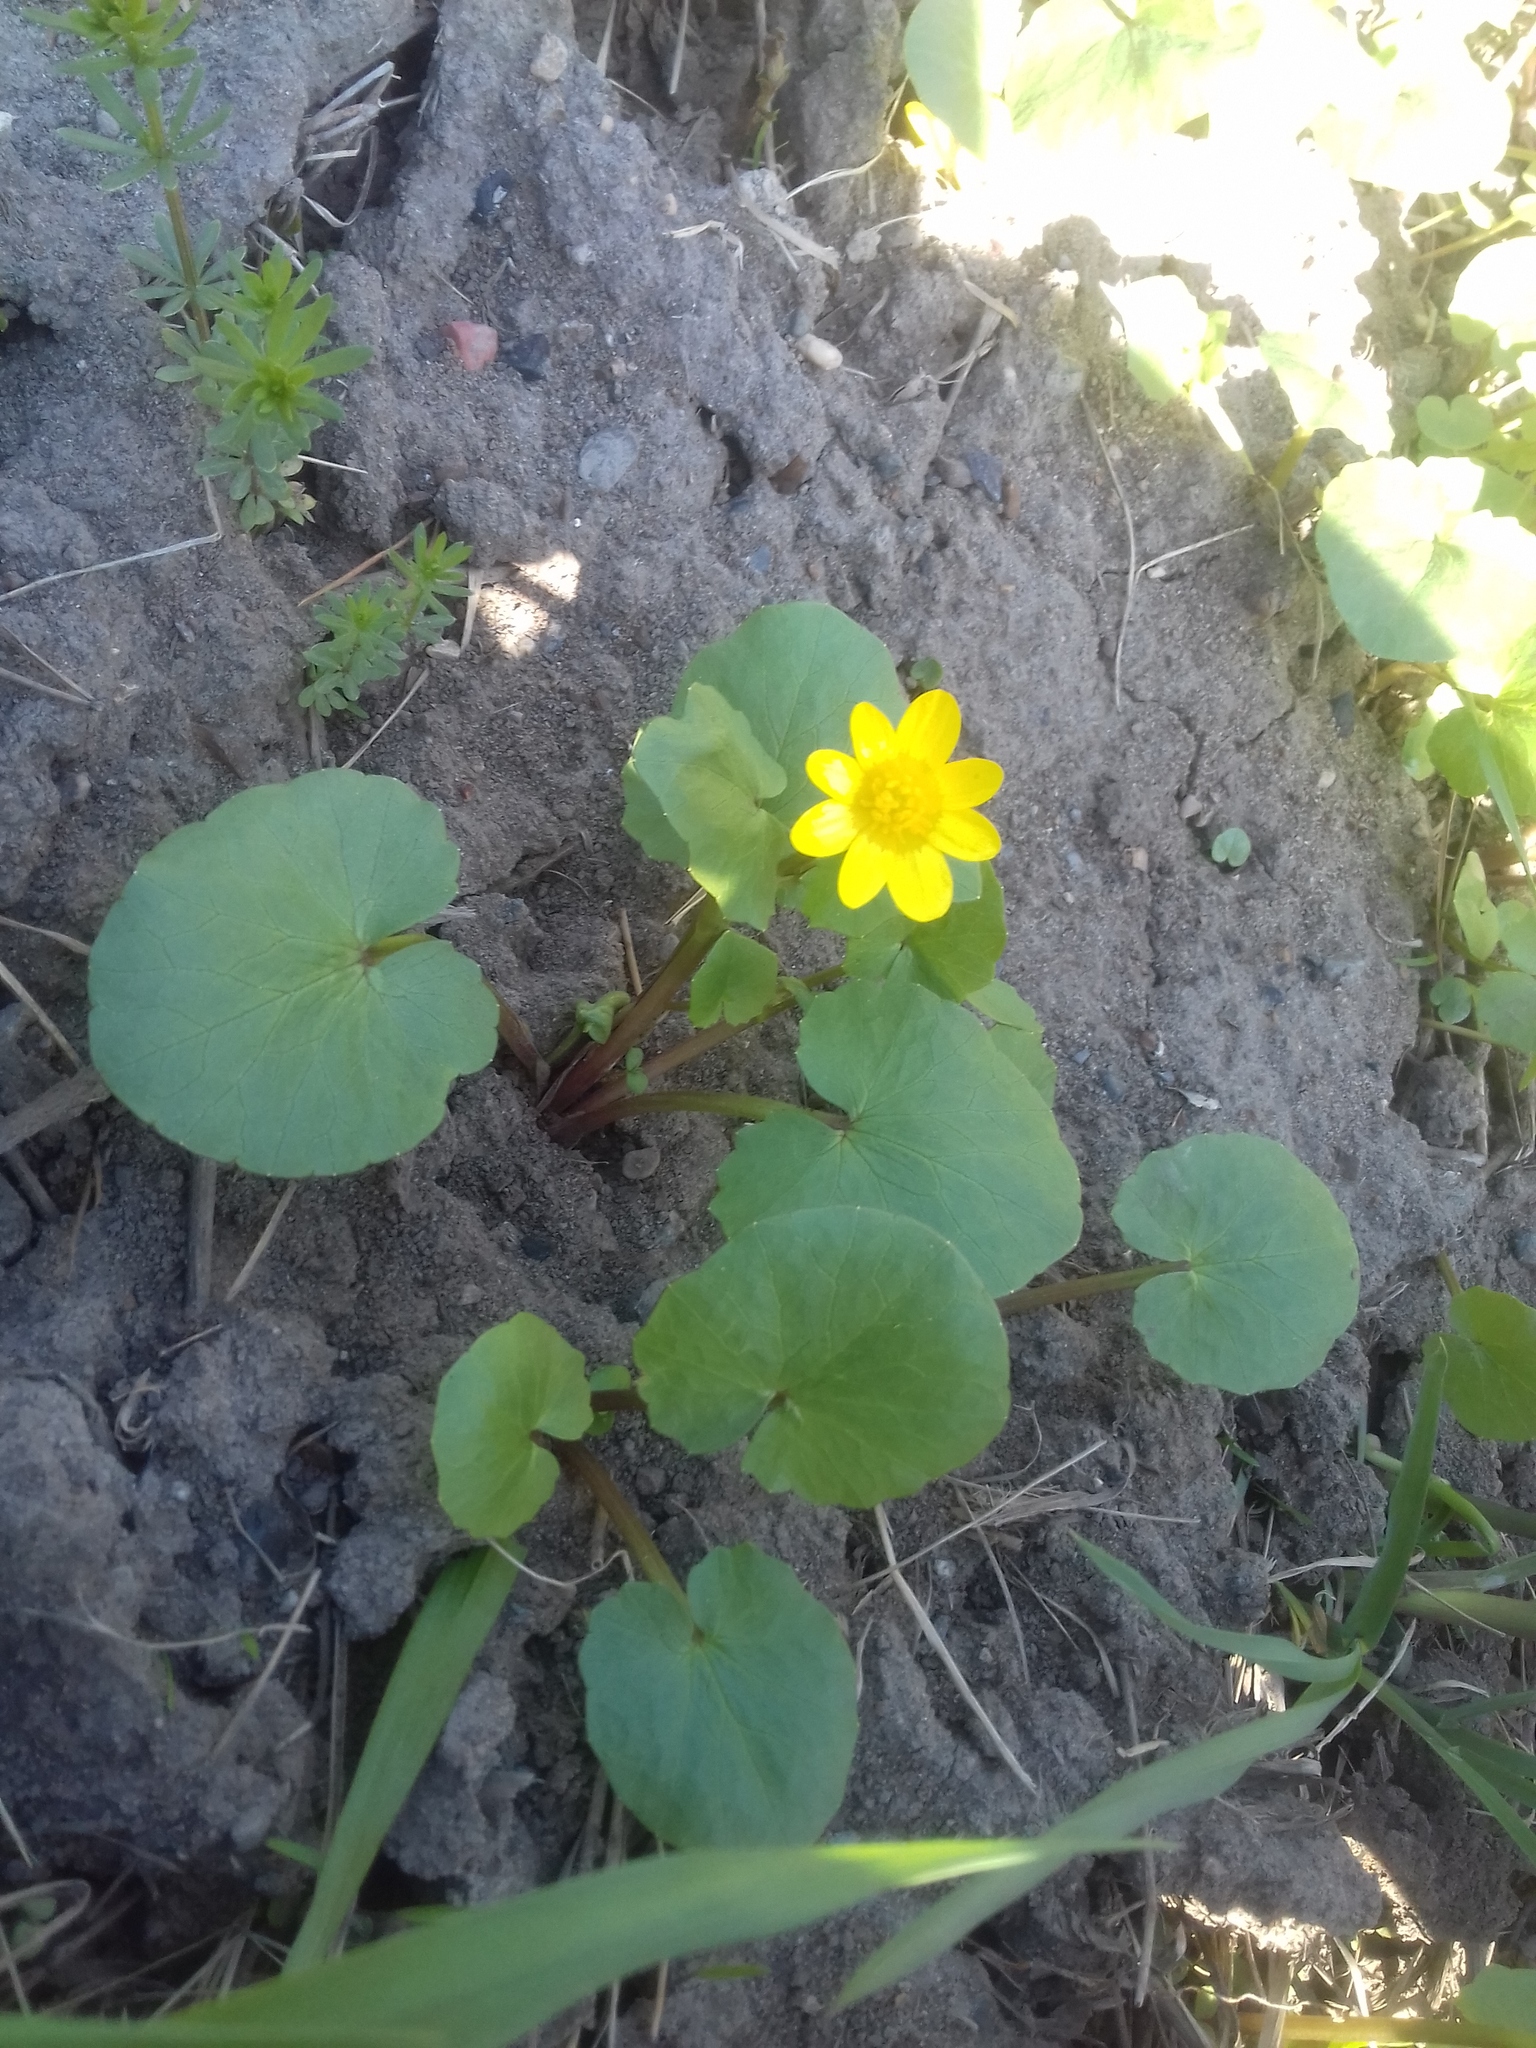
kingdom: Plantae
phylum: Tracheophyta
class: Magnoliopsida
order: Ranunculales
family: Ranunculaceae
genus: Ficaria
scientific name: Ficaria verna
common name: Lesser celandine
